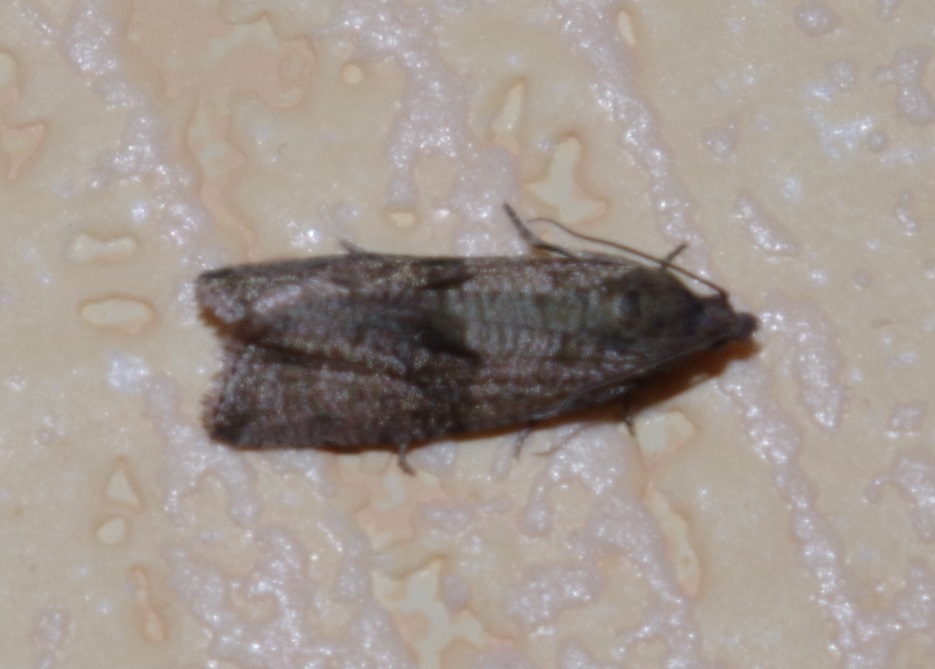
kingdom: Animalia
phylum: Arthropoda
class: Insecta
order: Lepidoptera
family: Tortricidae
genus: Celypha
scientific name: Celypha striana
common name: Barred marble
